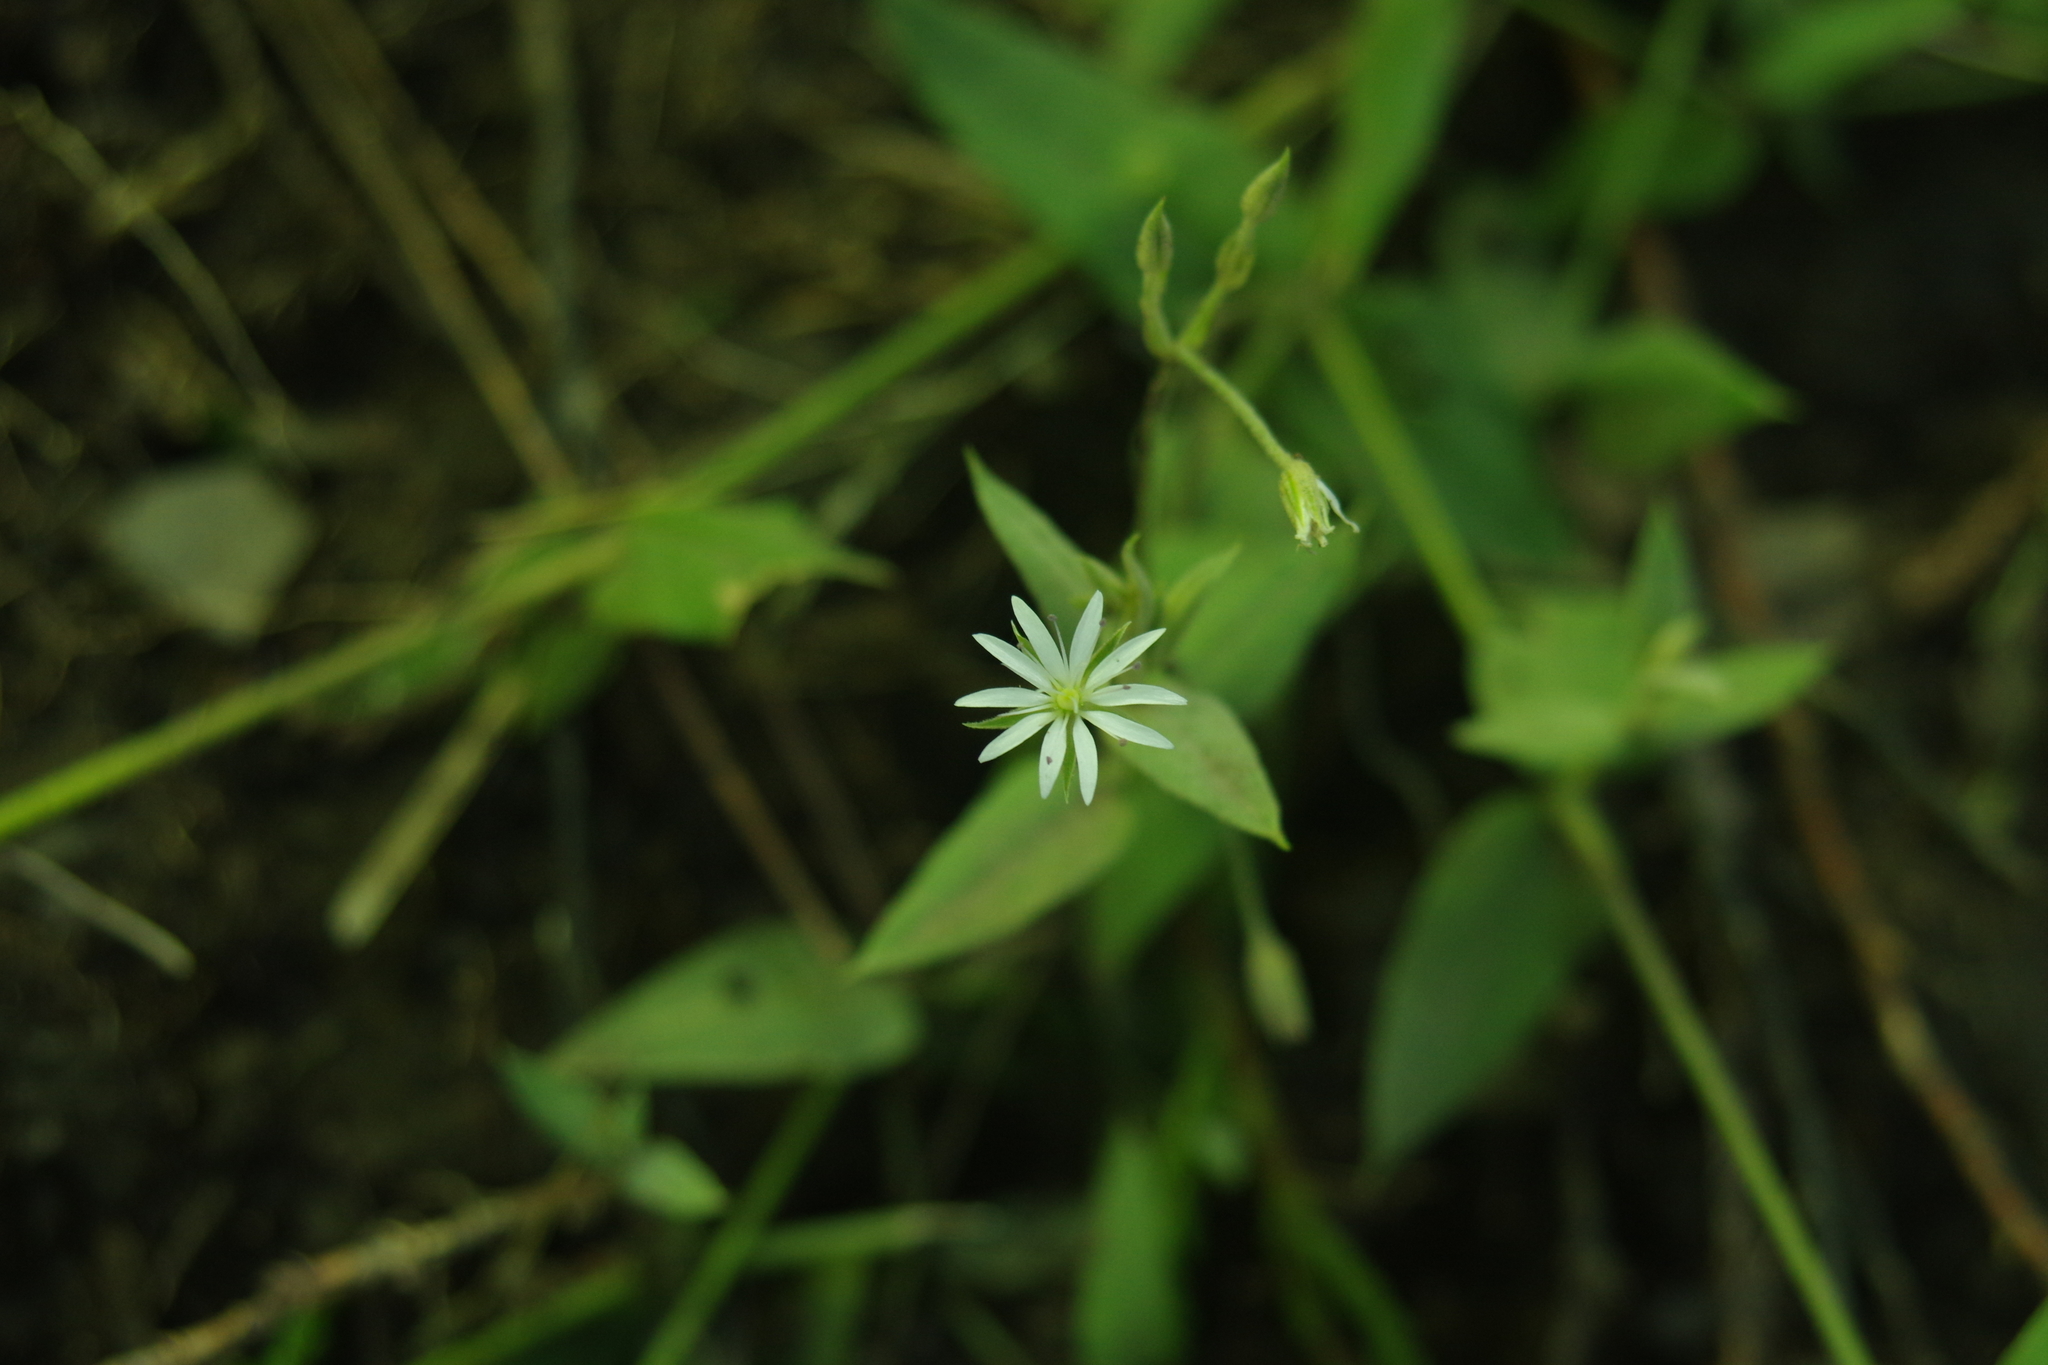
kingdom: Plantae
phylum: Tracheophyta
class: Magnoliopsida
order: Caryophyllales
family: Caryophyllaceae
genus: Stellaria
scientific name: Stellaria vestita
